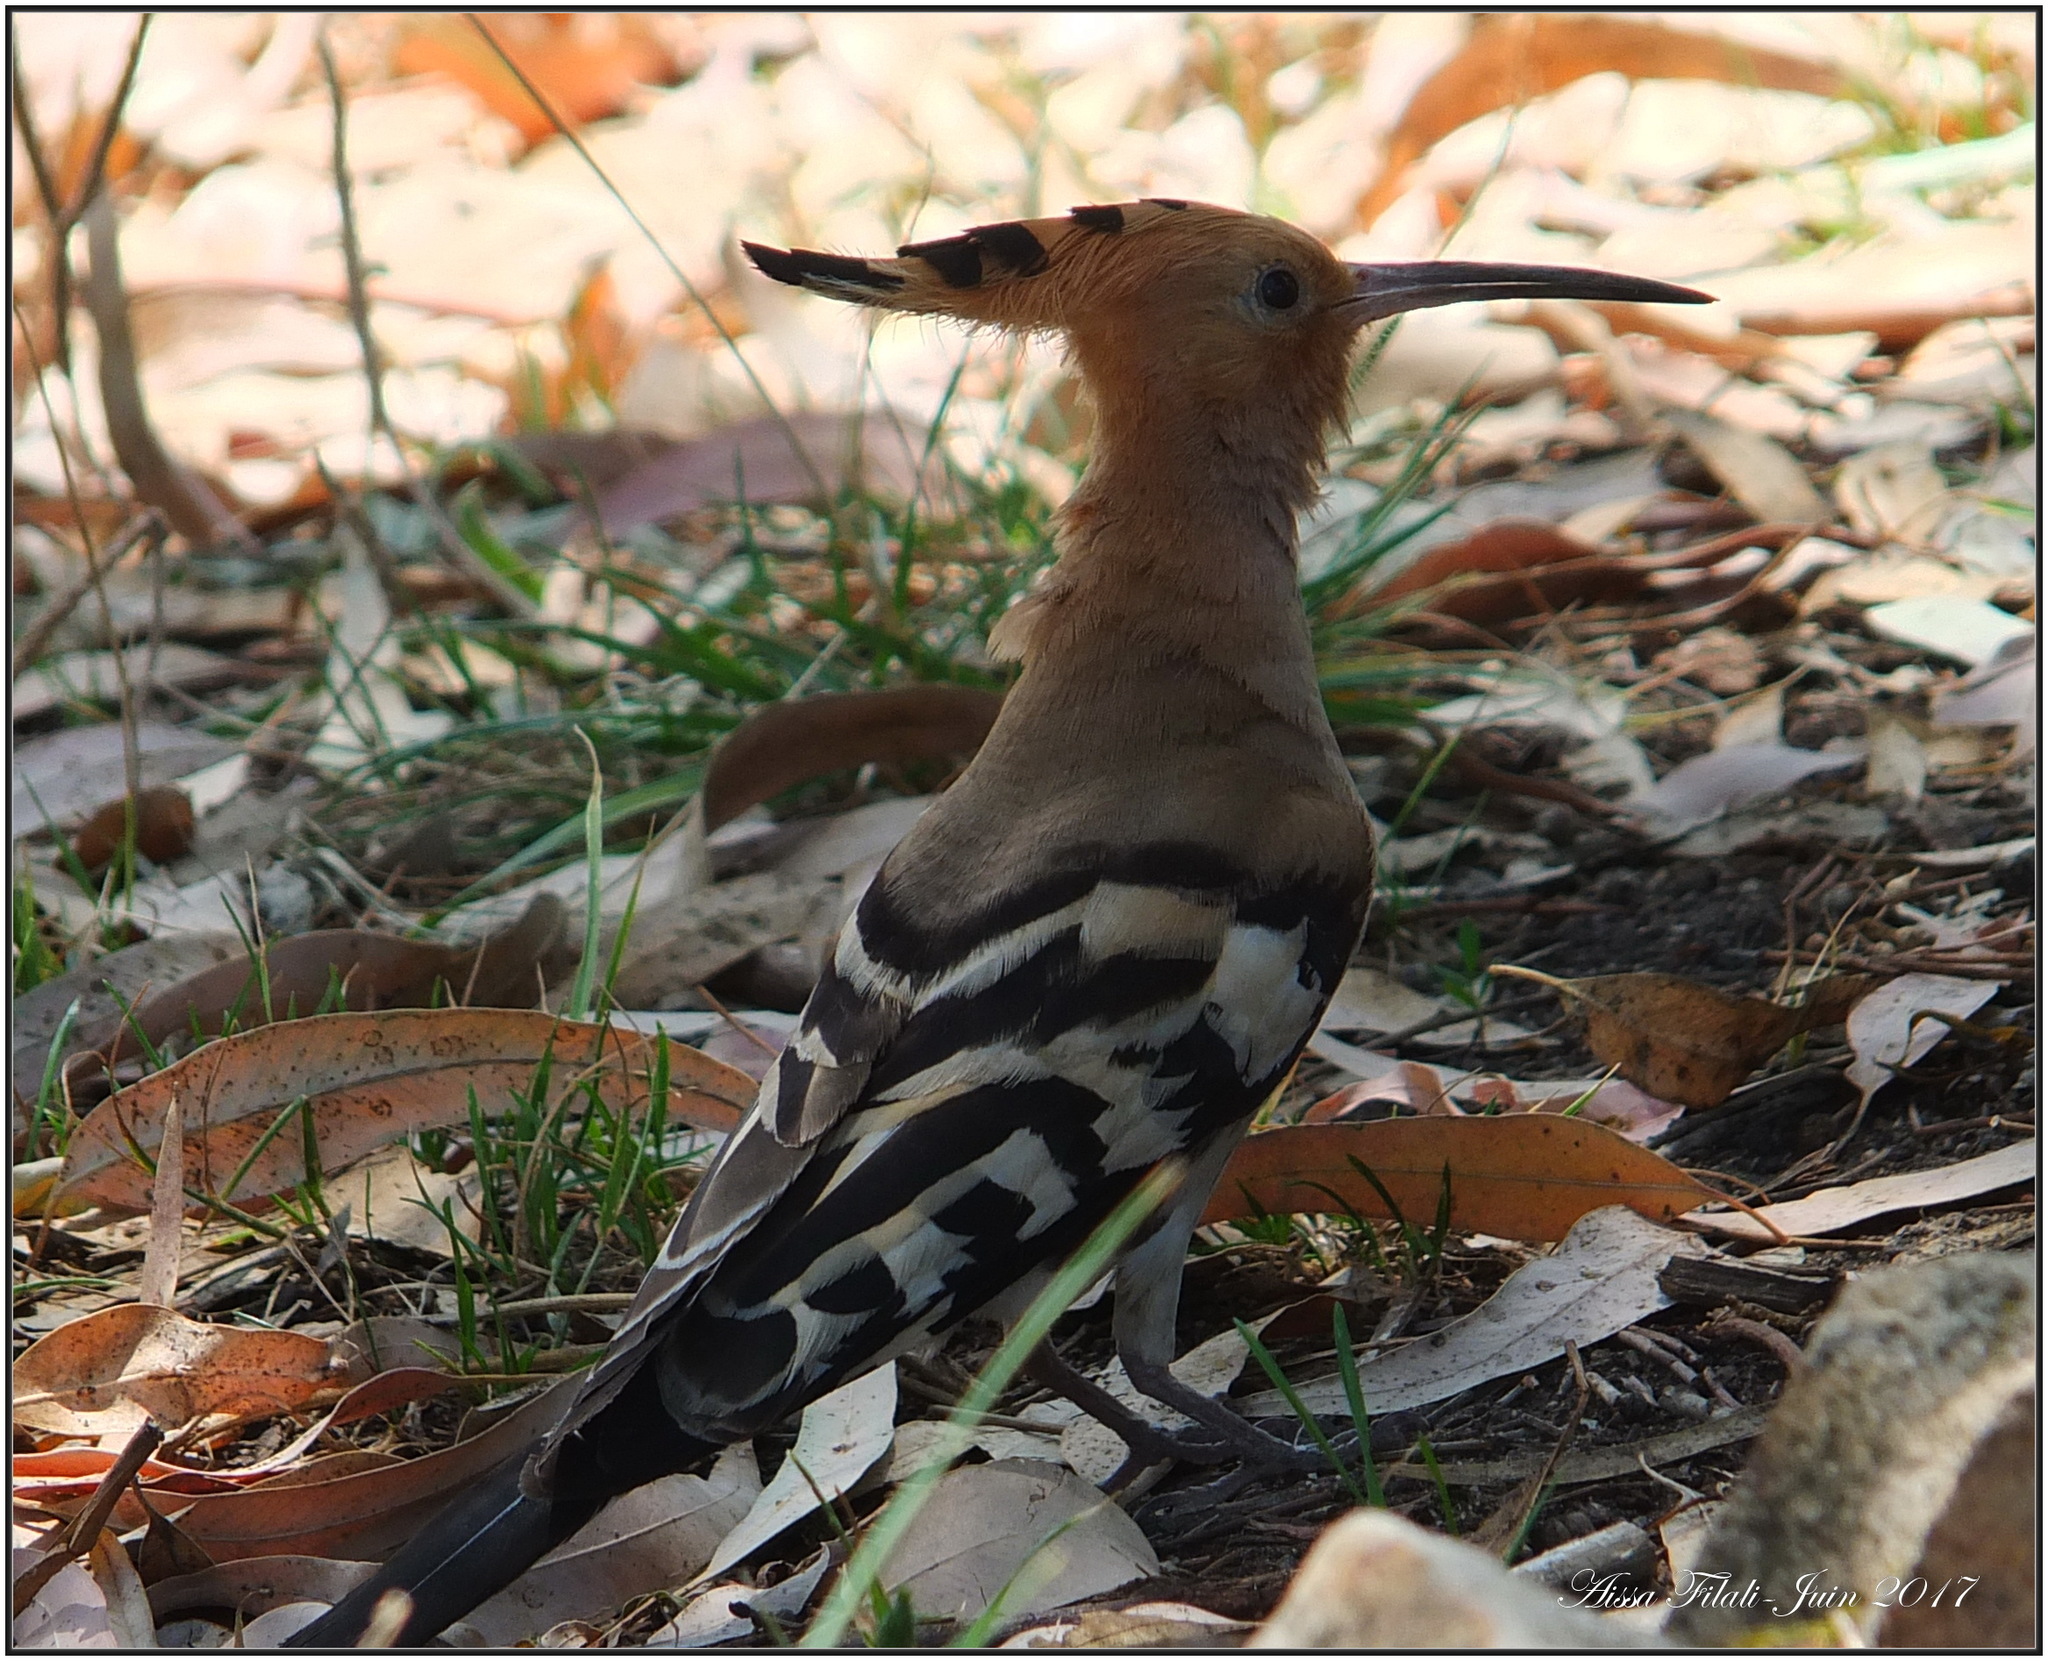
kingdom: Animalia
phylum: Chordata
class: Aves
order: Bucerotiformes
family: Upupidae
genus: Upupa
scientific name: Upupa epops
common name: Eurasian hoopoe
